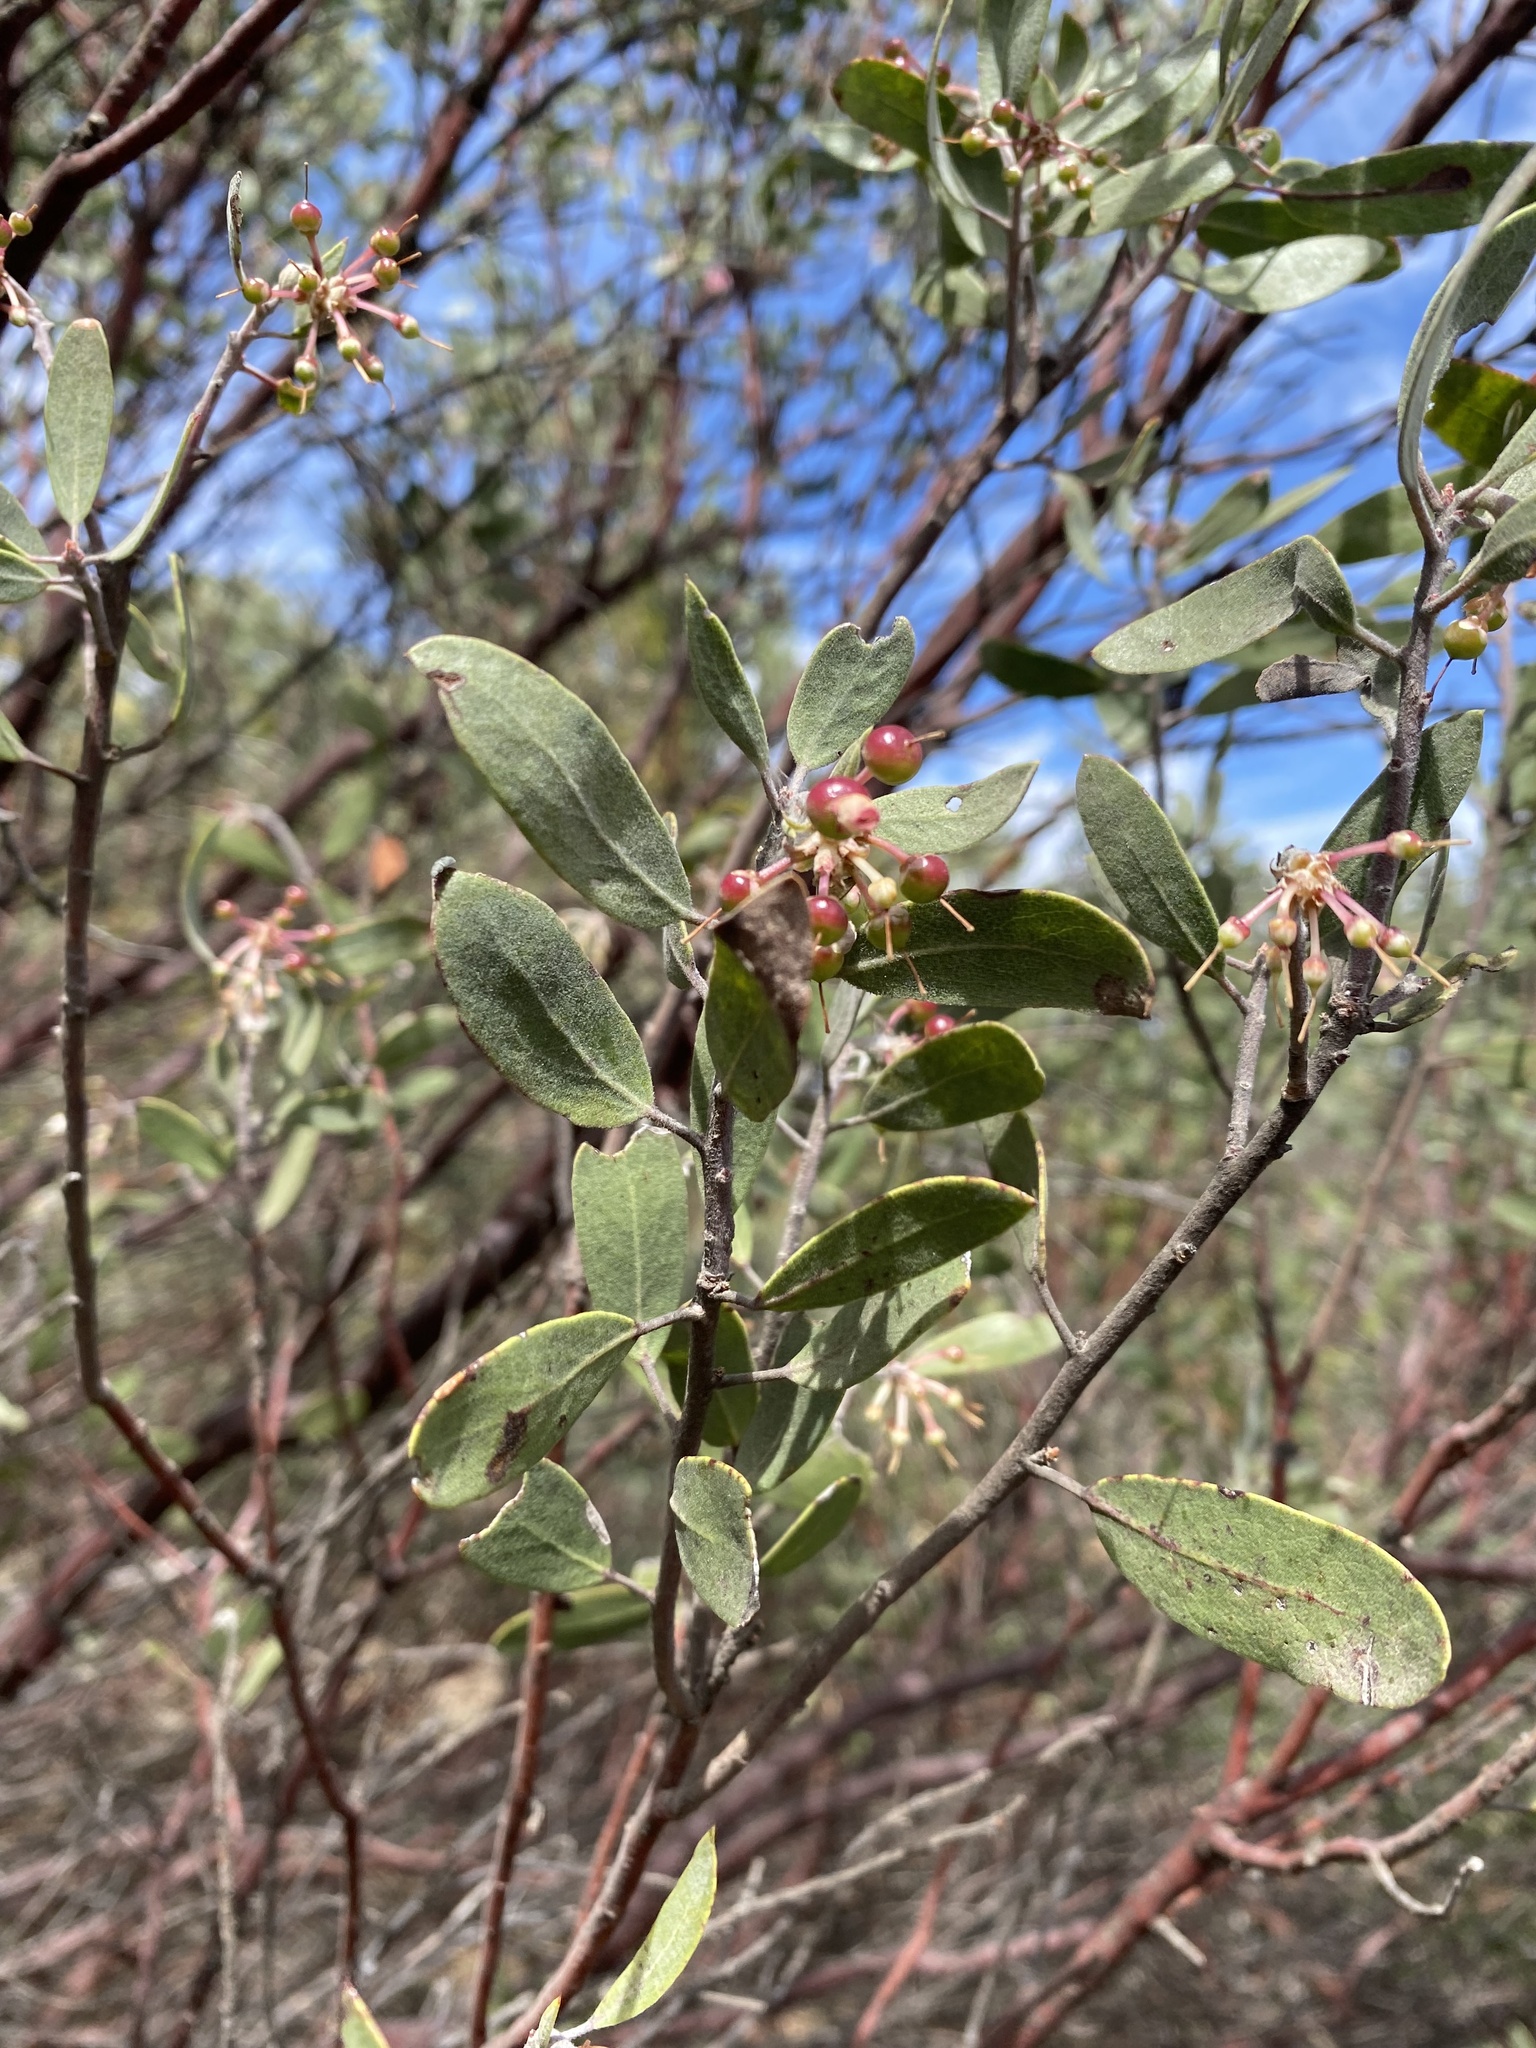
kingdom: Plantae
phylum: Tracheophyta
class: Magnoliopsida
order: Ericales
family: Ericaceae
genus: Arctostaphylos
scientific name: Arctostaphylos pungens
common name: Mexican manzanita
